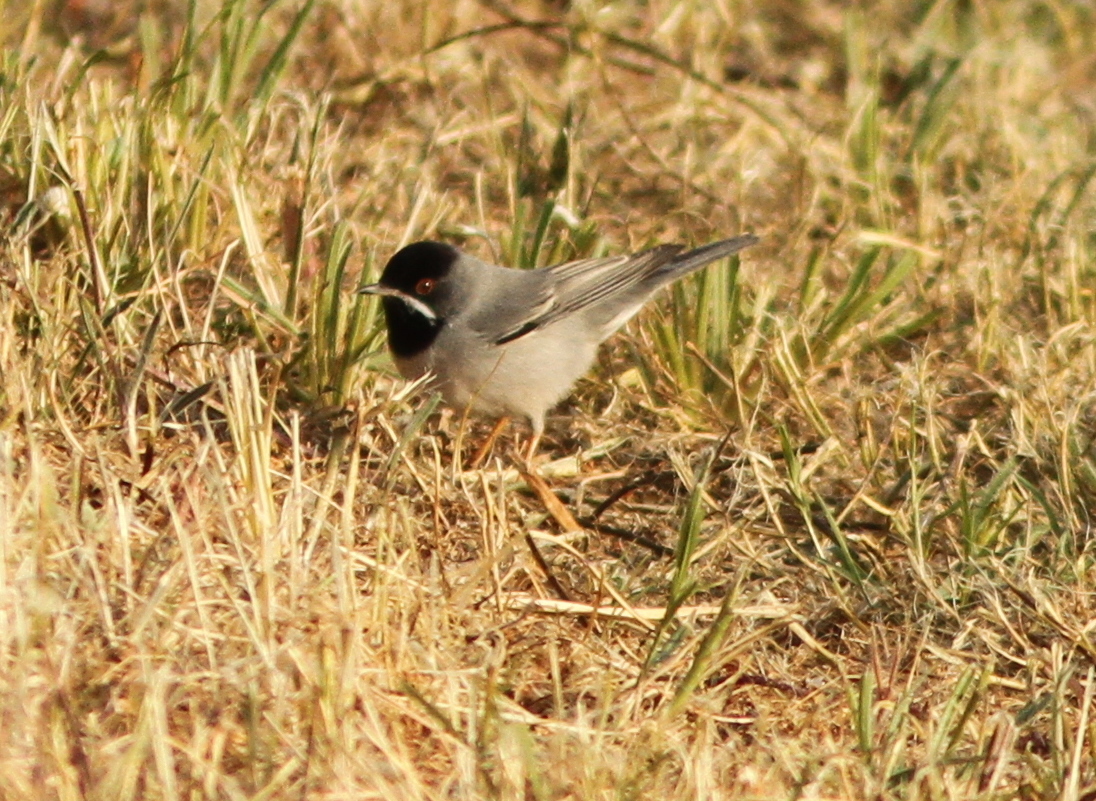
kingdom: Animalia
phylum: Chordata
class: Aves
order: Passeriformes
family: Sylviidae
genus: Sylvia
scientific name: Sylvia ruppeli
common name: Rüppell's warbler
